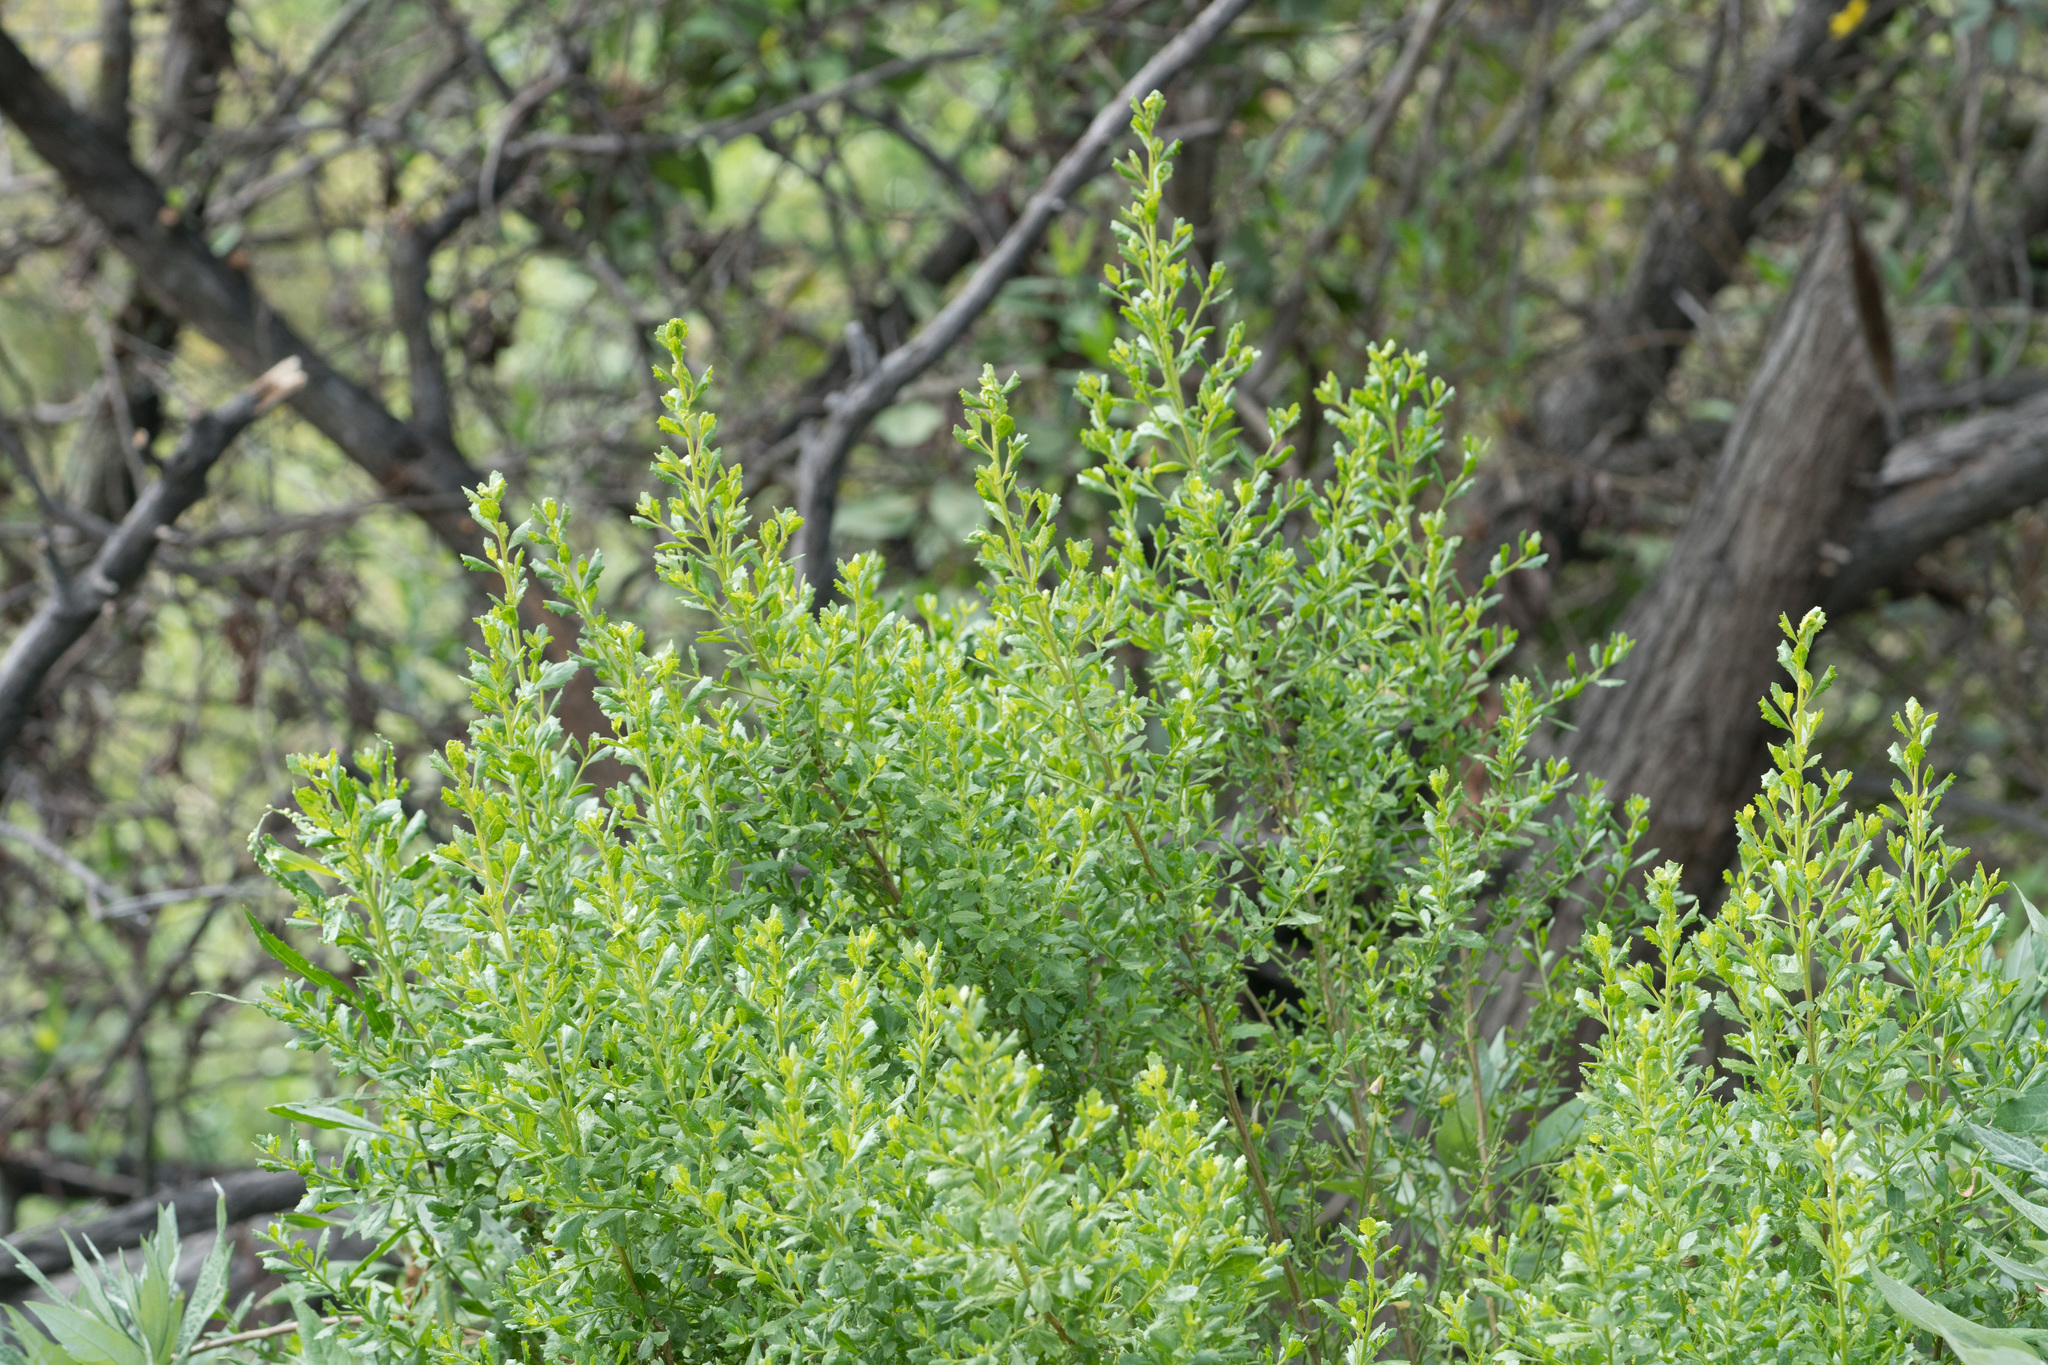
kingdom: Plantae
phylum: Tracheophyta
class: Magnoliopsida
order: Asterales
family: Asteraceae
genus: Baccharis
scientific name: Baccharis pilularis
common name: Coyotebrush
